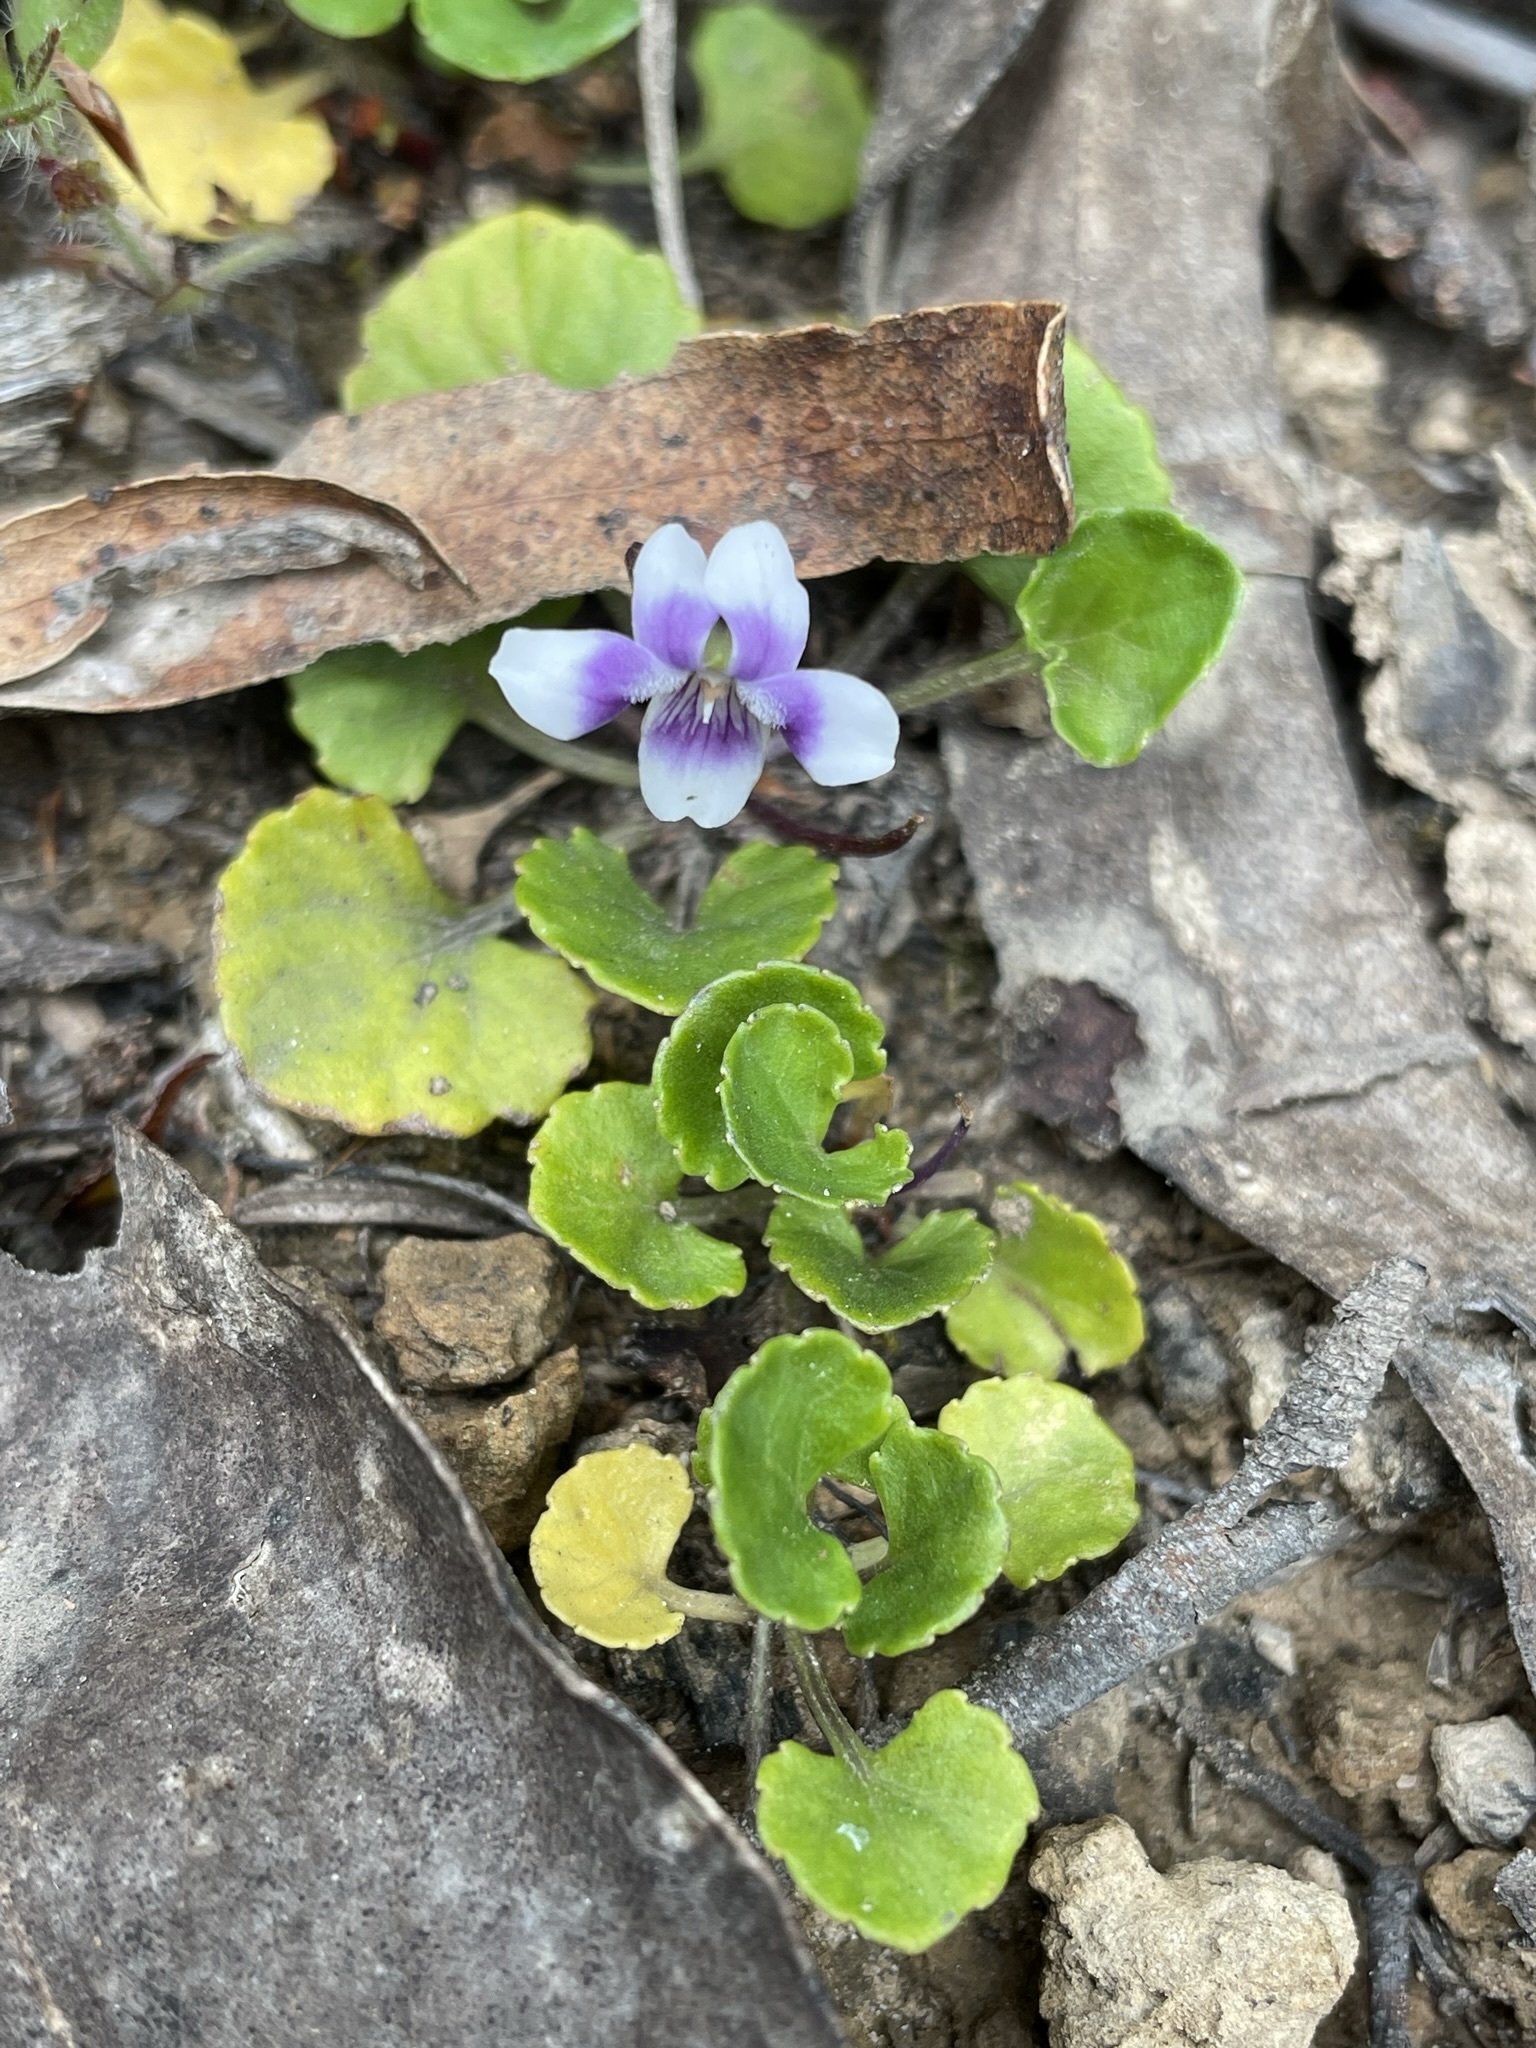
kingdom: Plantae
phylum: Tracheophyta
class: Magnoliopsida
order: Malpighiales
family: Violaceae
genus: Viola
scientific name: Viola hederacea
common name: Australian violet
